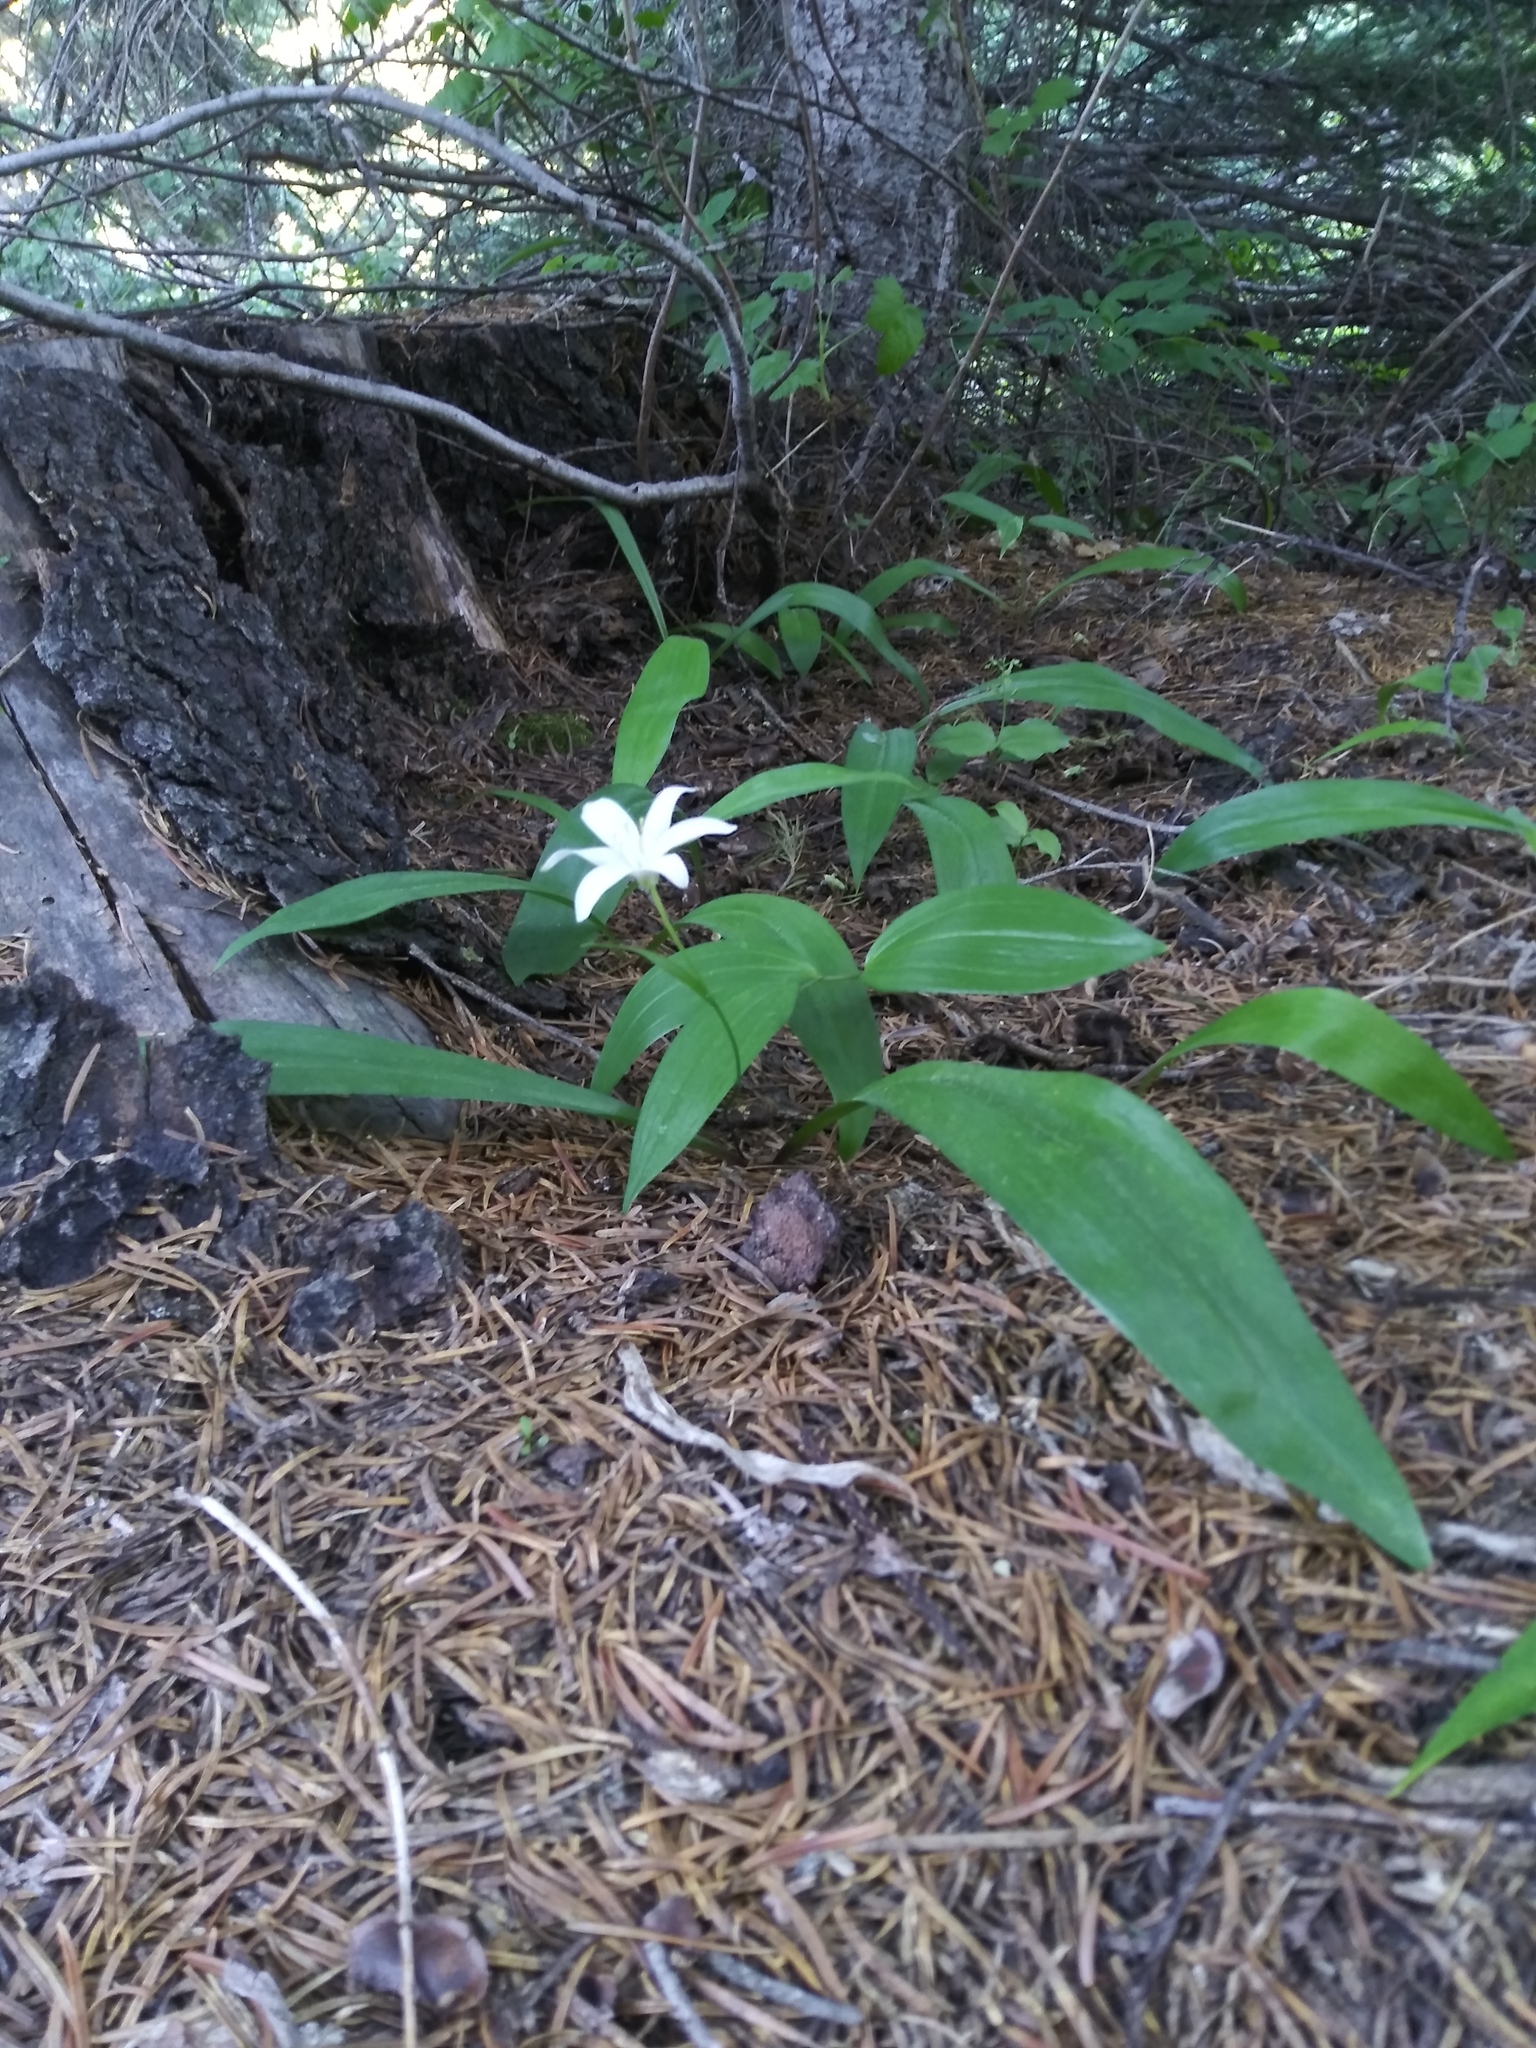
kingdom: Plantae
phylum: Tracheophyta
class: Liliopsida
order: Liliales
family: Liliaceae
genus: Clintonia
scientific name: Clintonia uniflora
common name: Queen's cup
